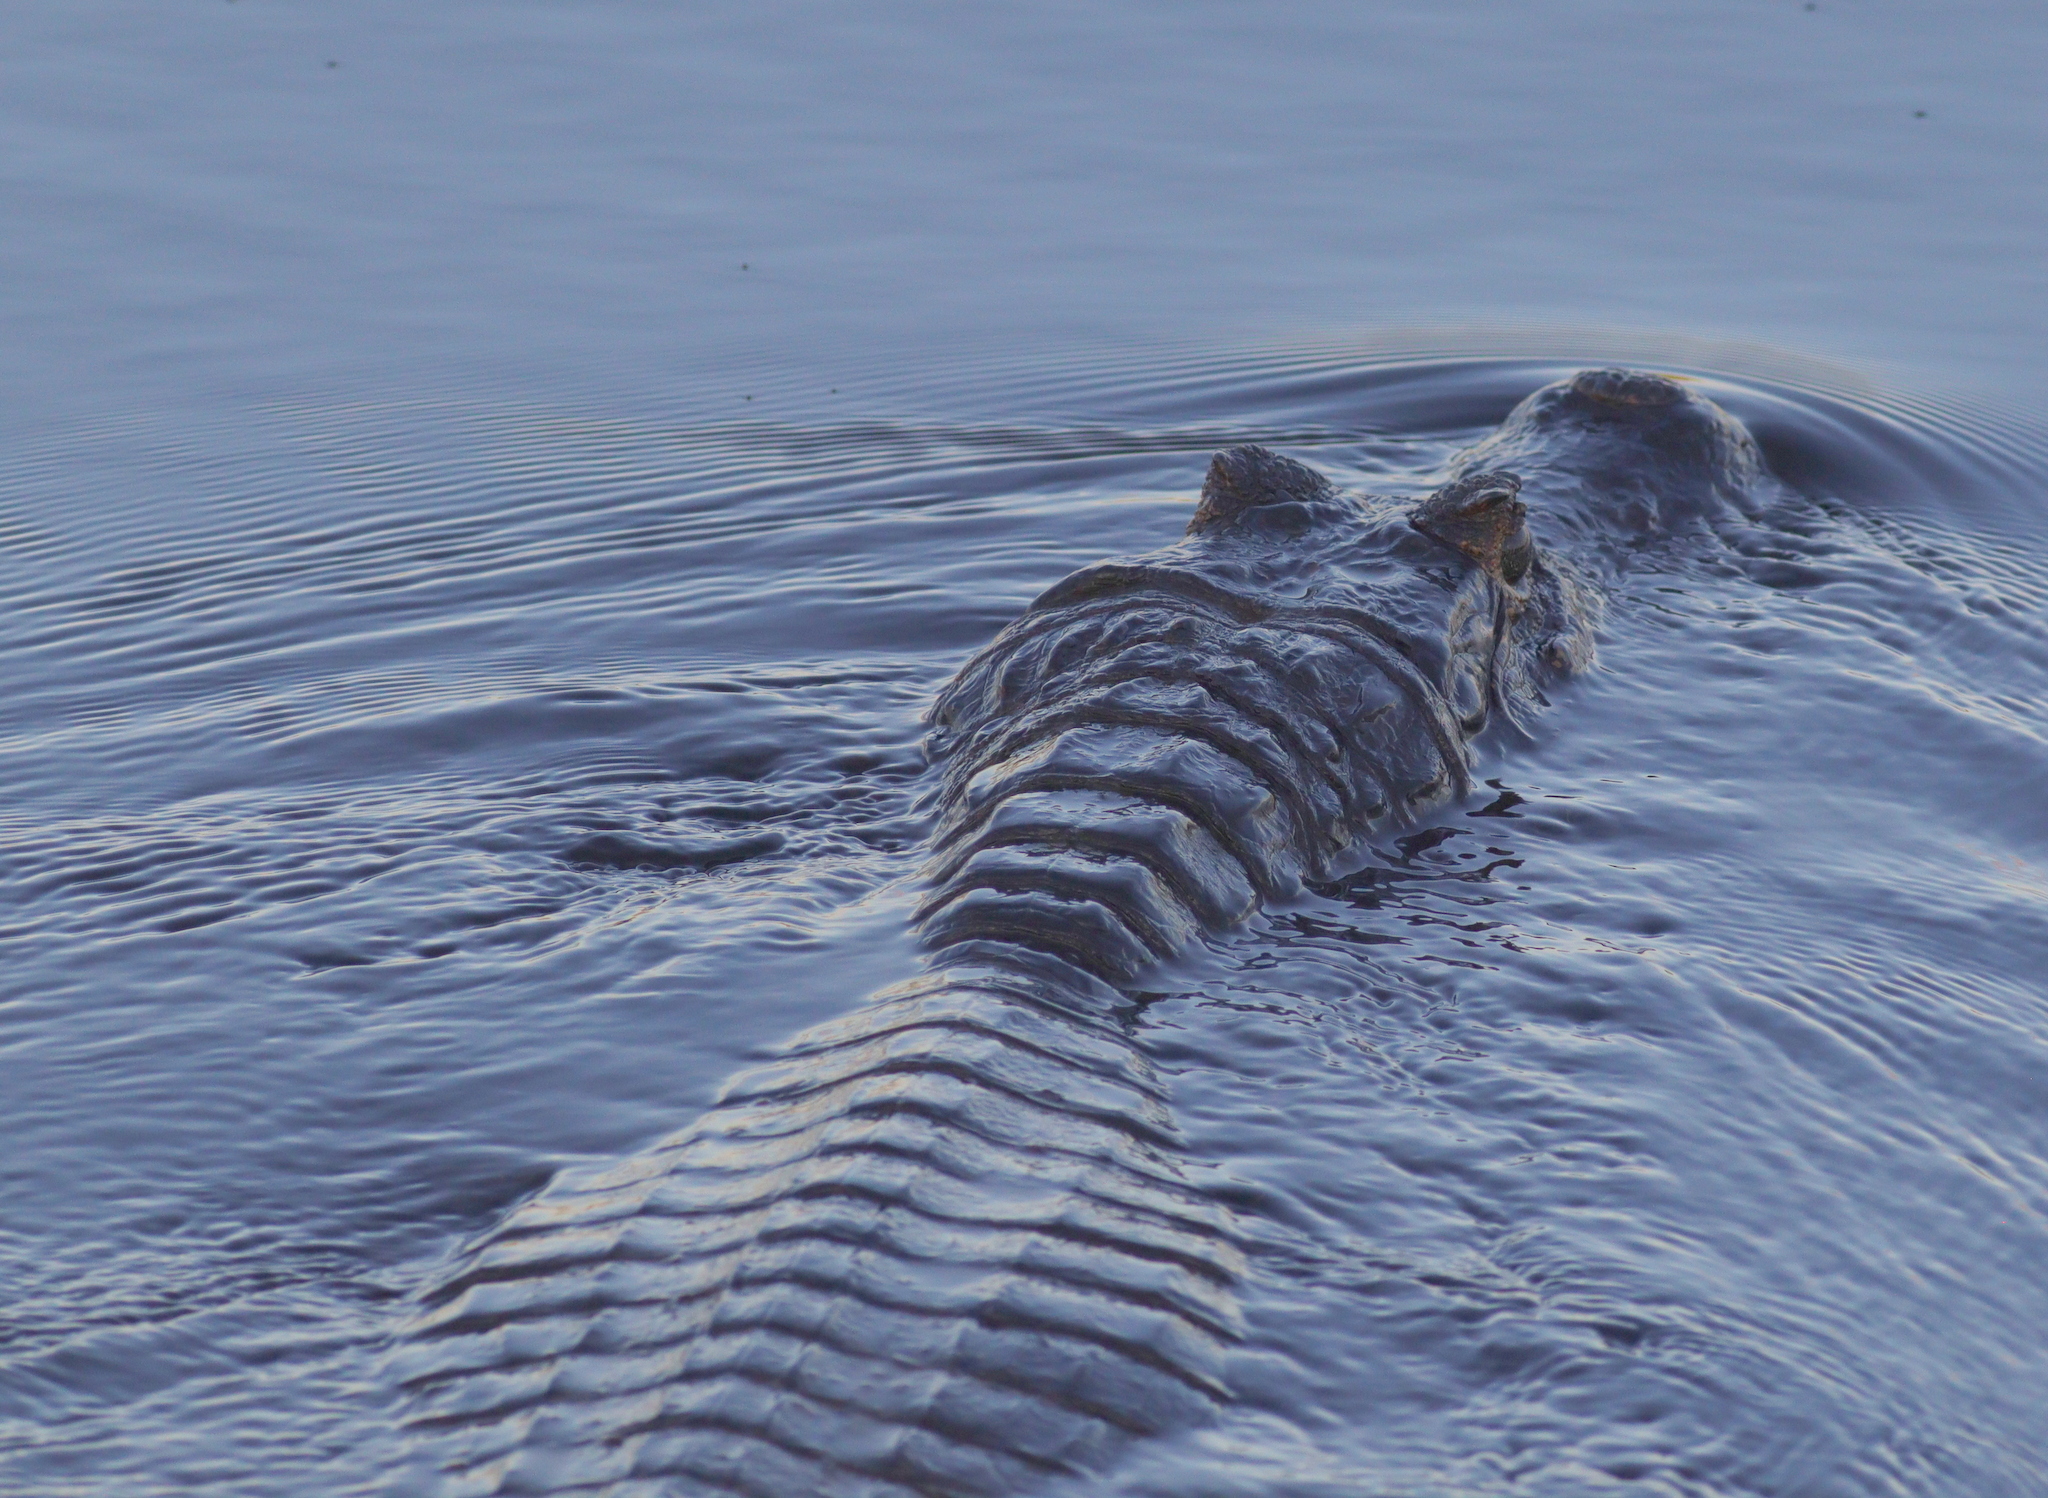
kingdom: Animalia
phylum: Chordata
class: Crocodylia
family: Alligatoridae
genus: Caiman
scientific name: Caiman yacare
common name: Yacare caiman
